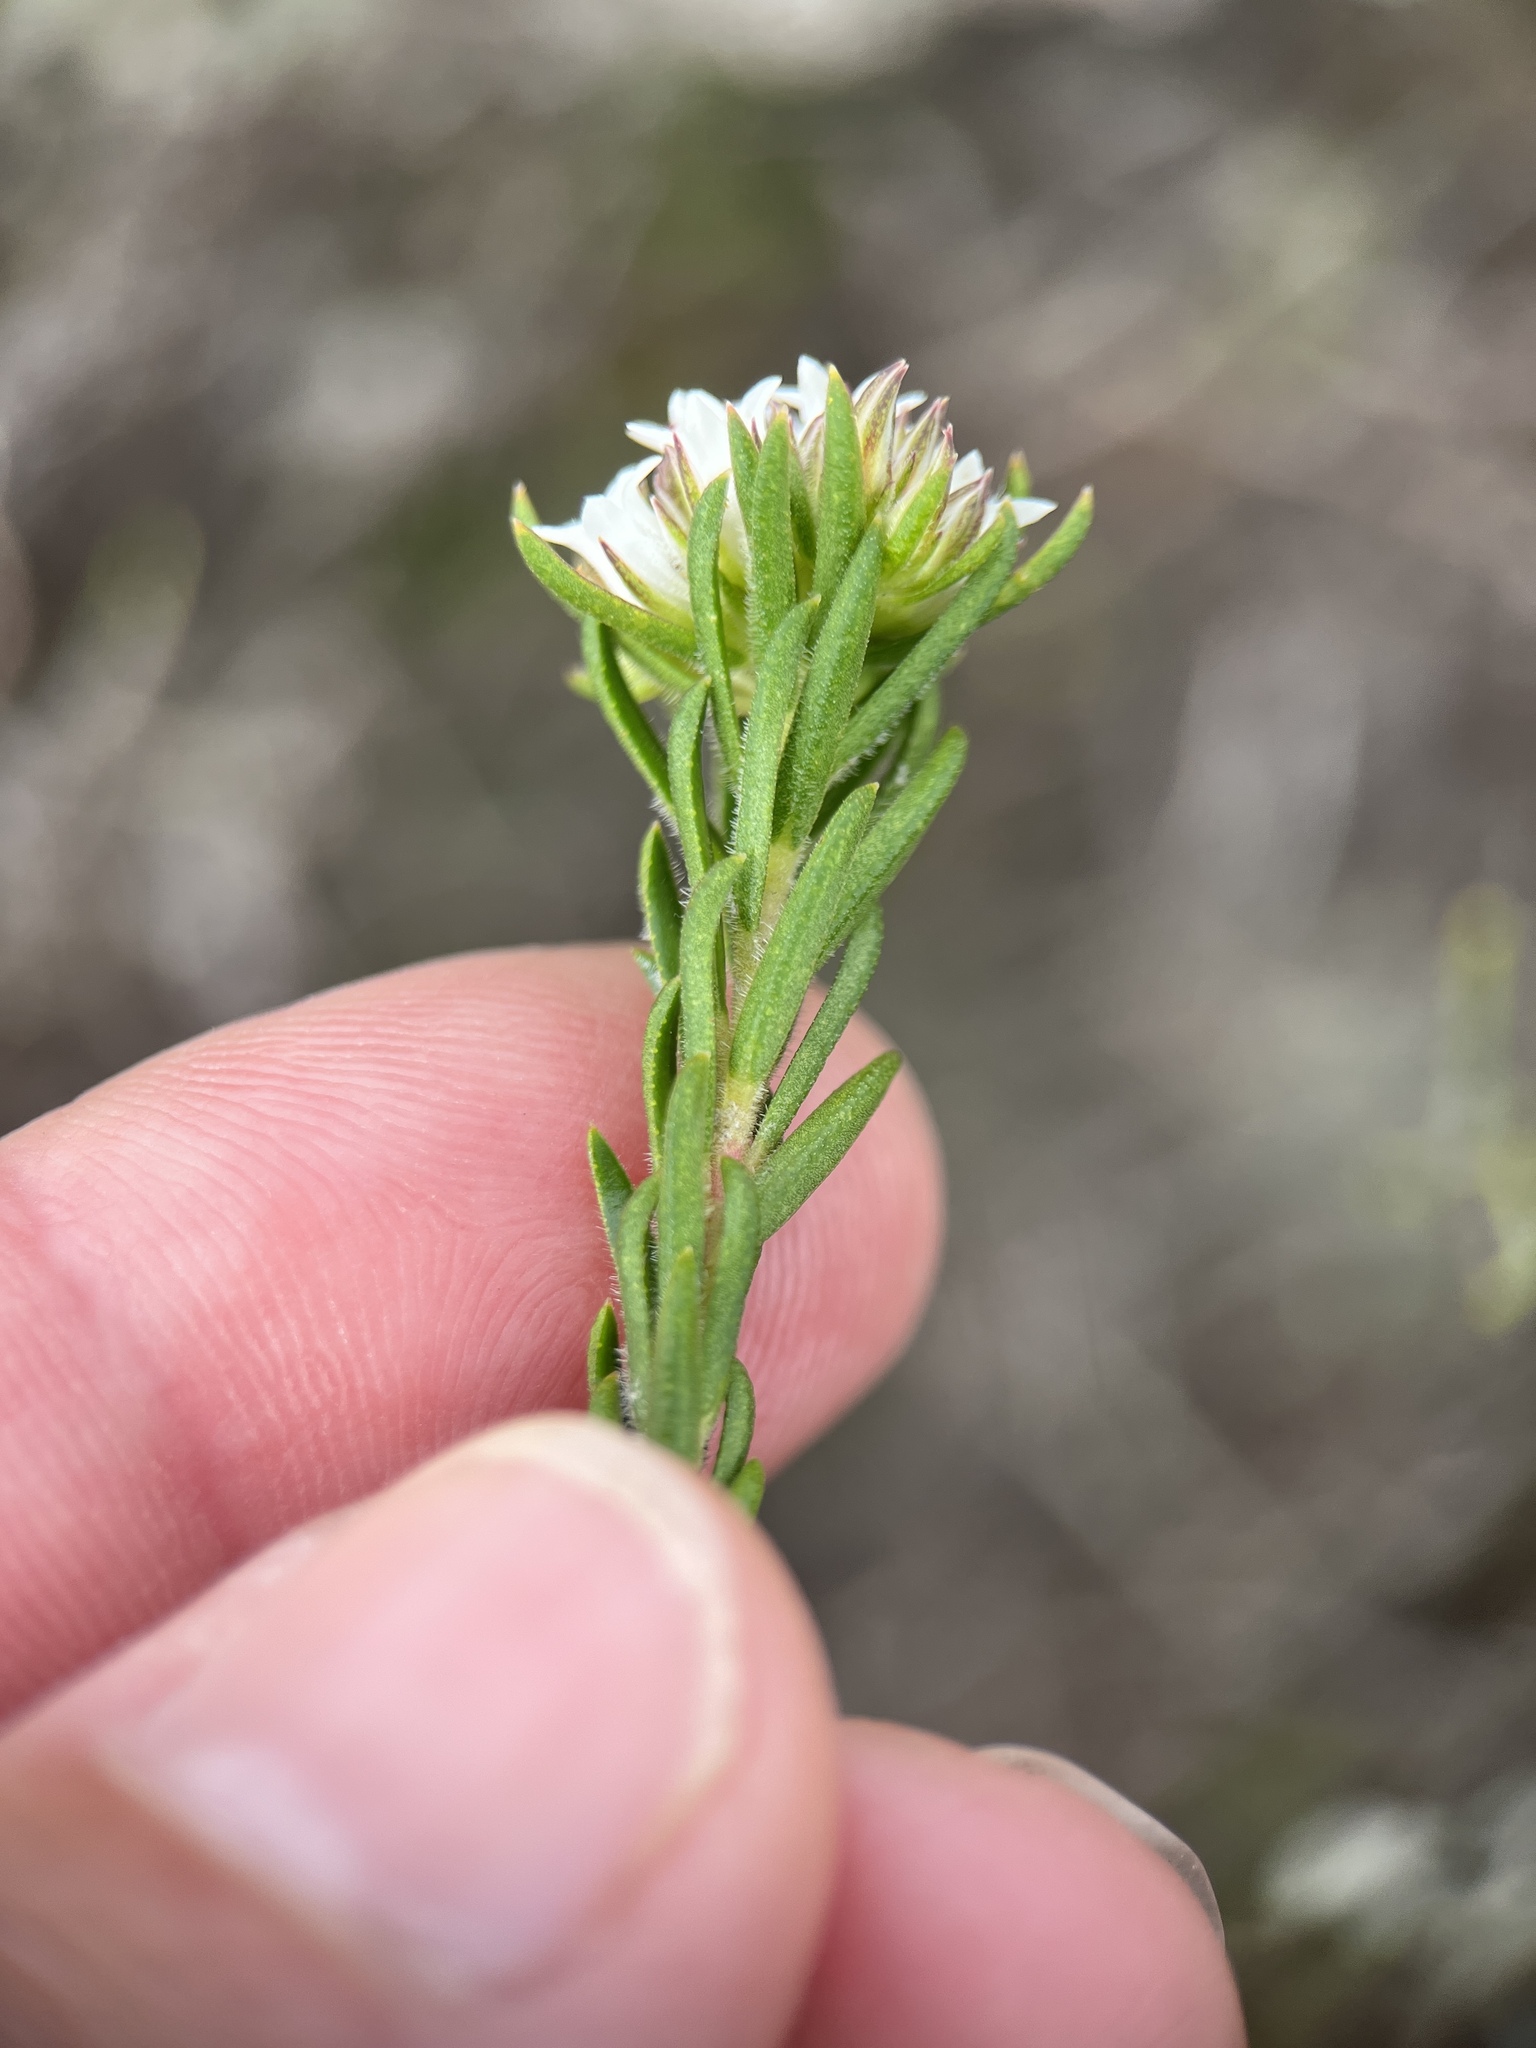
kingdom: Plantae
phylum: Tracheophyta
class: Magnoliopsida
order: Sapindales
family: Rutaceae
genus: Euchaetis
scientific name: Euchaetis diosmoides
